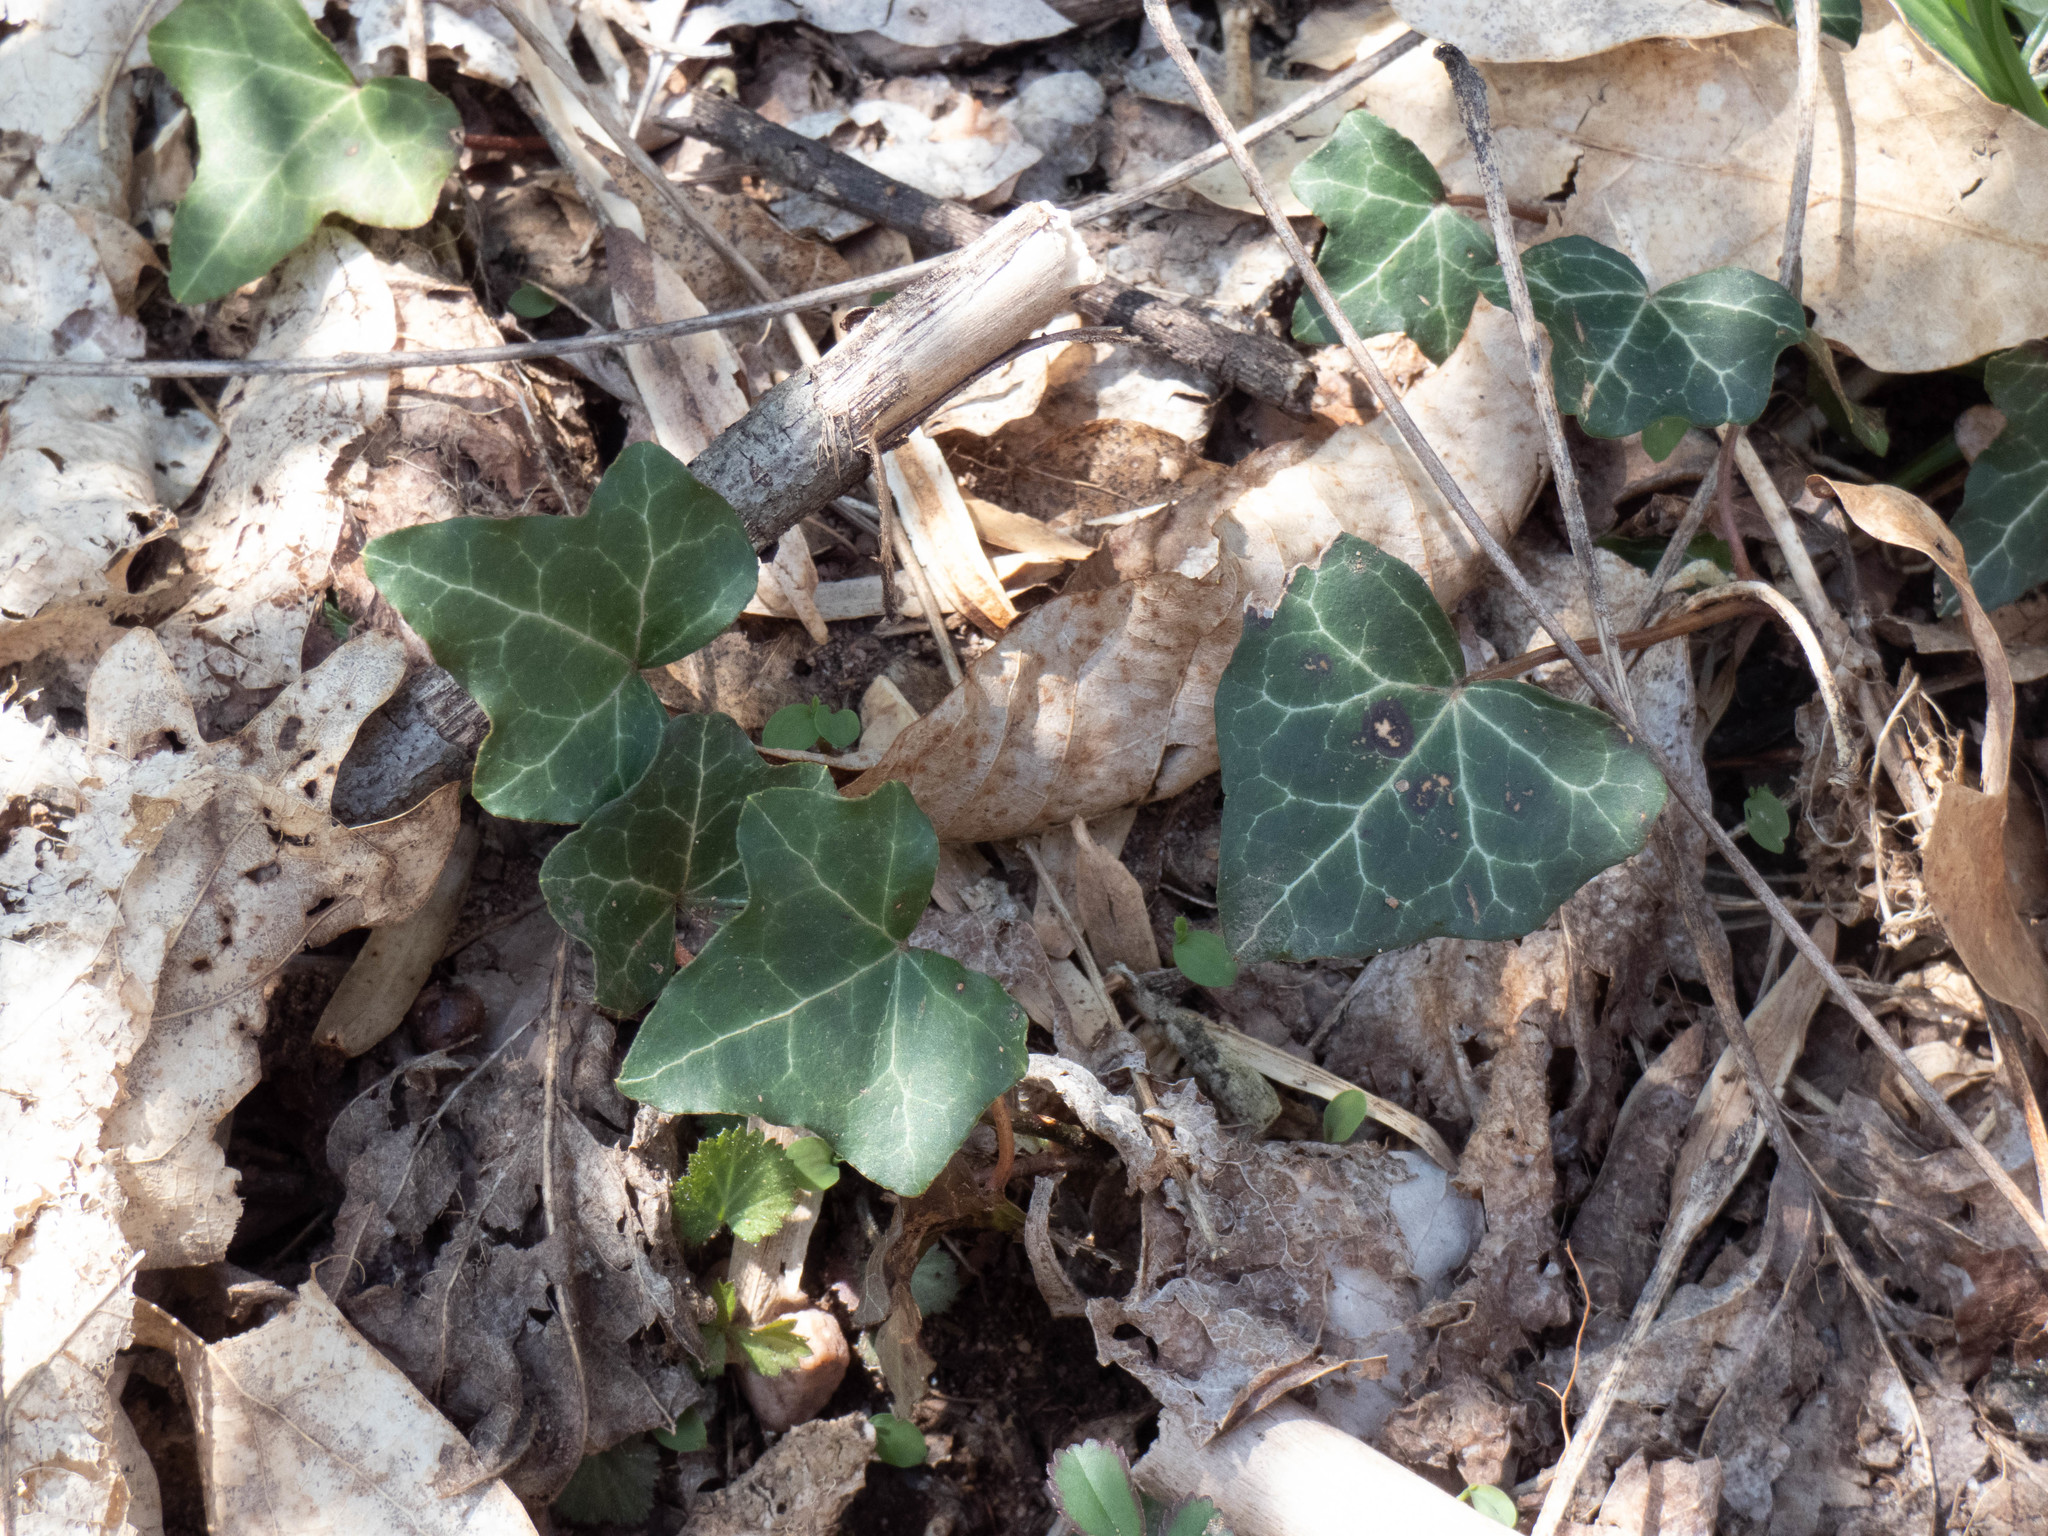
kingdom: Plantae
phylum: Tracheophyta
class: Magnoliopsida
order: Apiales
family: Araliaceae
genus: Hedera
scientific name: Hedera helix
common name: Ivy
